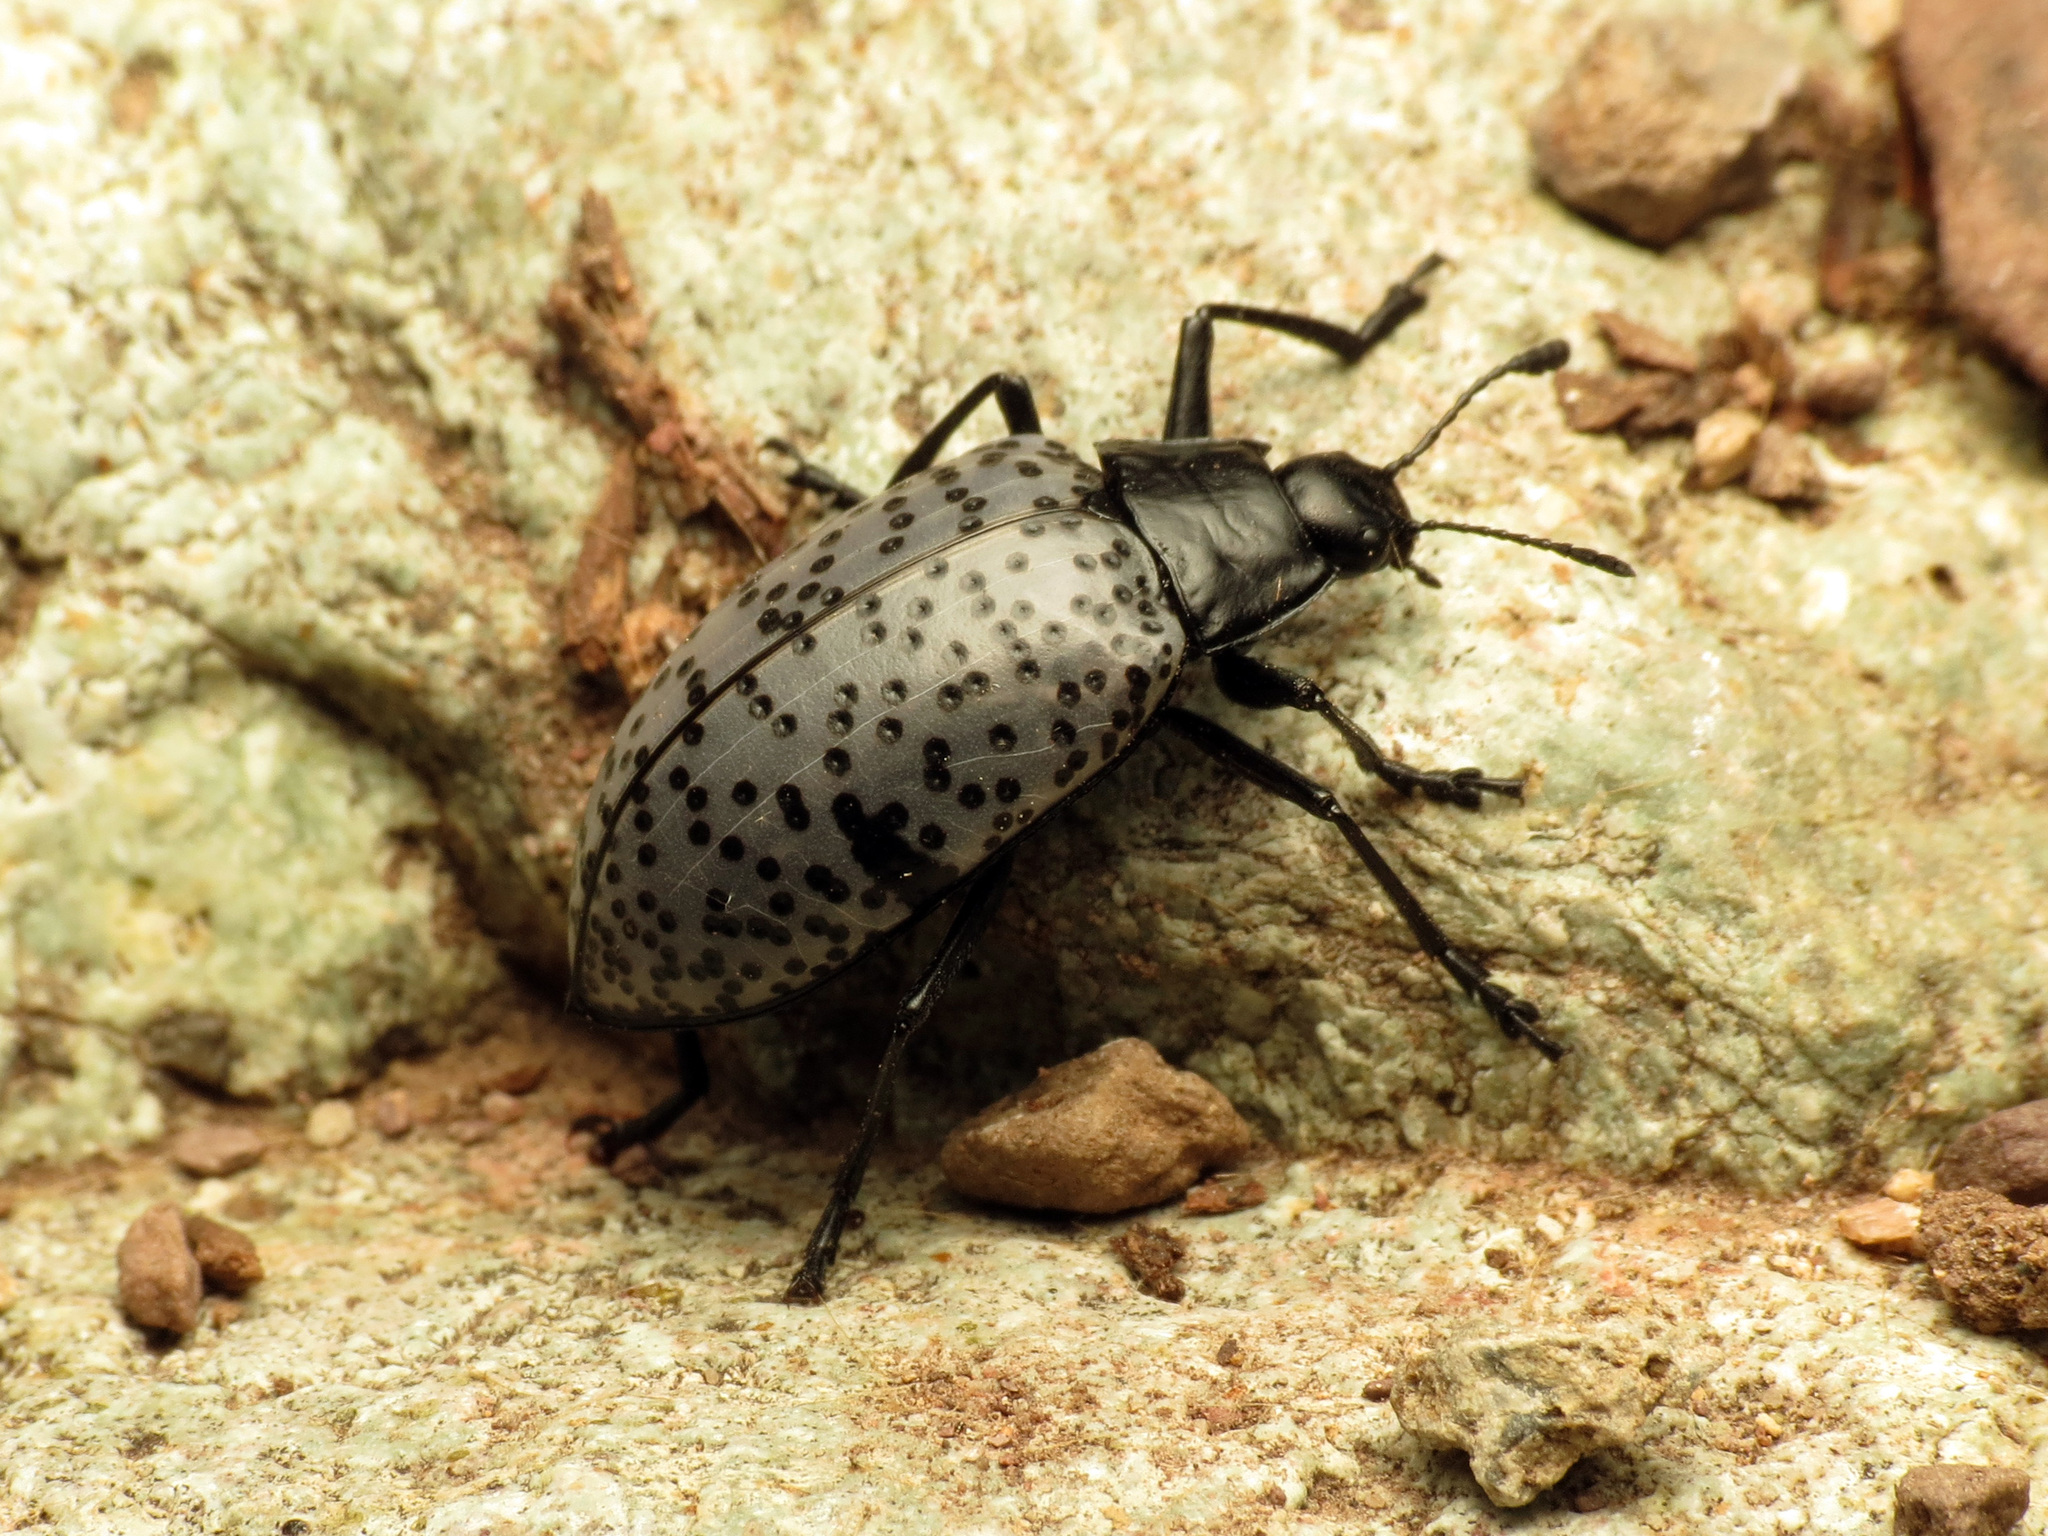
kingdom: Animalia
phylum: Arthropoda
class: Insecta
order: Coleoptera
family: Erotylidae
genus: Gibbifer
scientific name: Gibbifer californicus
